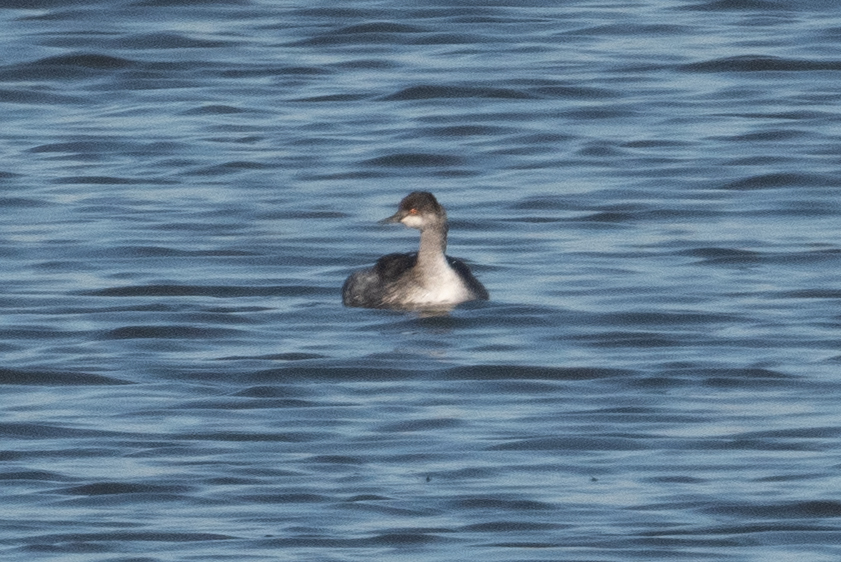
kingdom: Animalia
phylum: Chordata
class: Aves
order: Podicipediformes
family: Podicipedidae
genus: Podiceps
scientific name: Podiceps nigricollis
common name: Black-necked grebe
